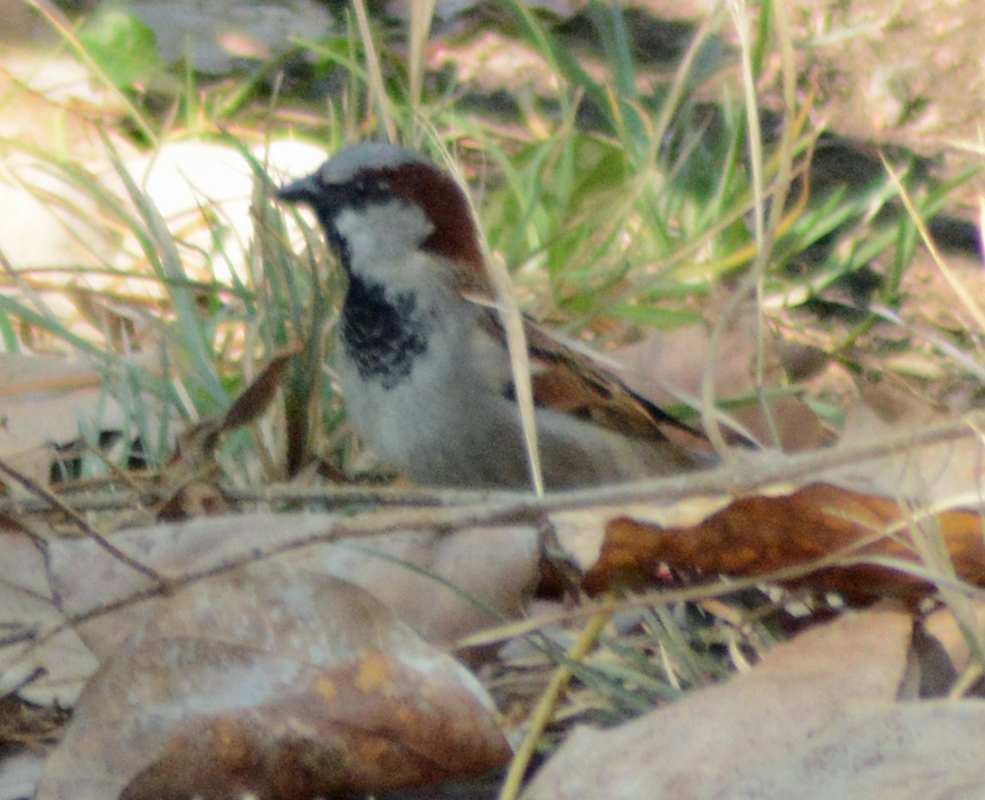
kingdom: Animalia
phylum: Chordata
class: Aves
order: Passeriformes
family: Passeridae
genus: Passer
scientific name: Passer domesticus
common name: House sparrow
